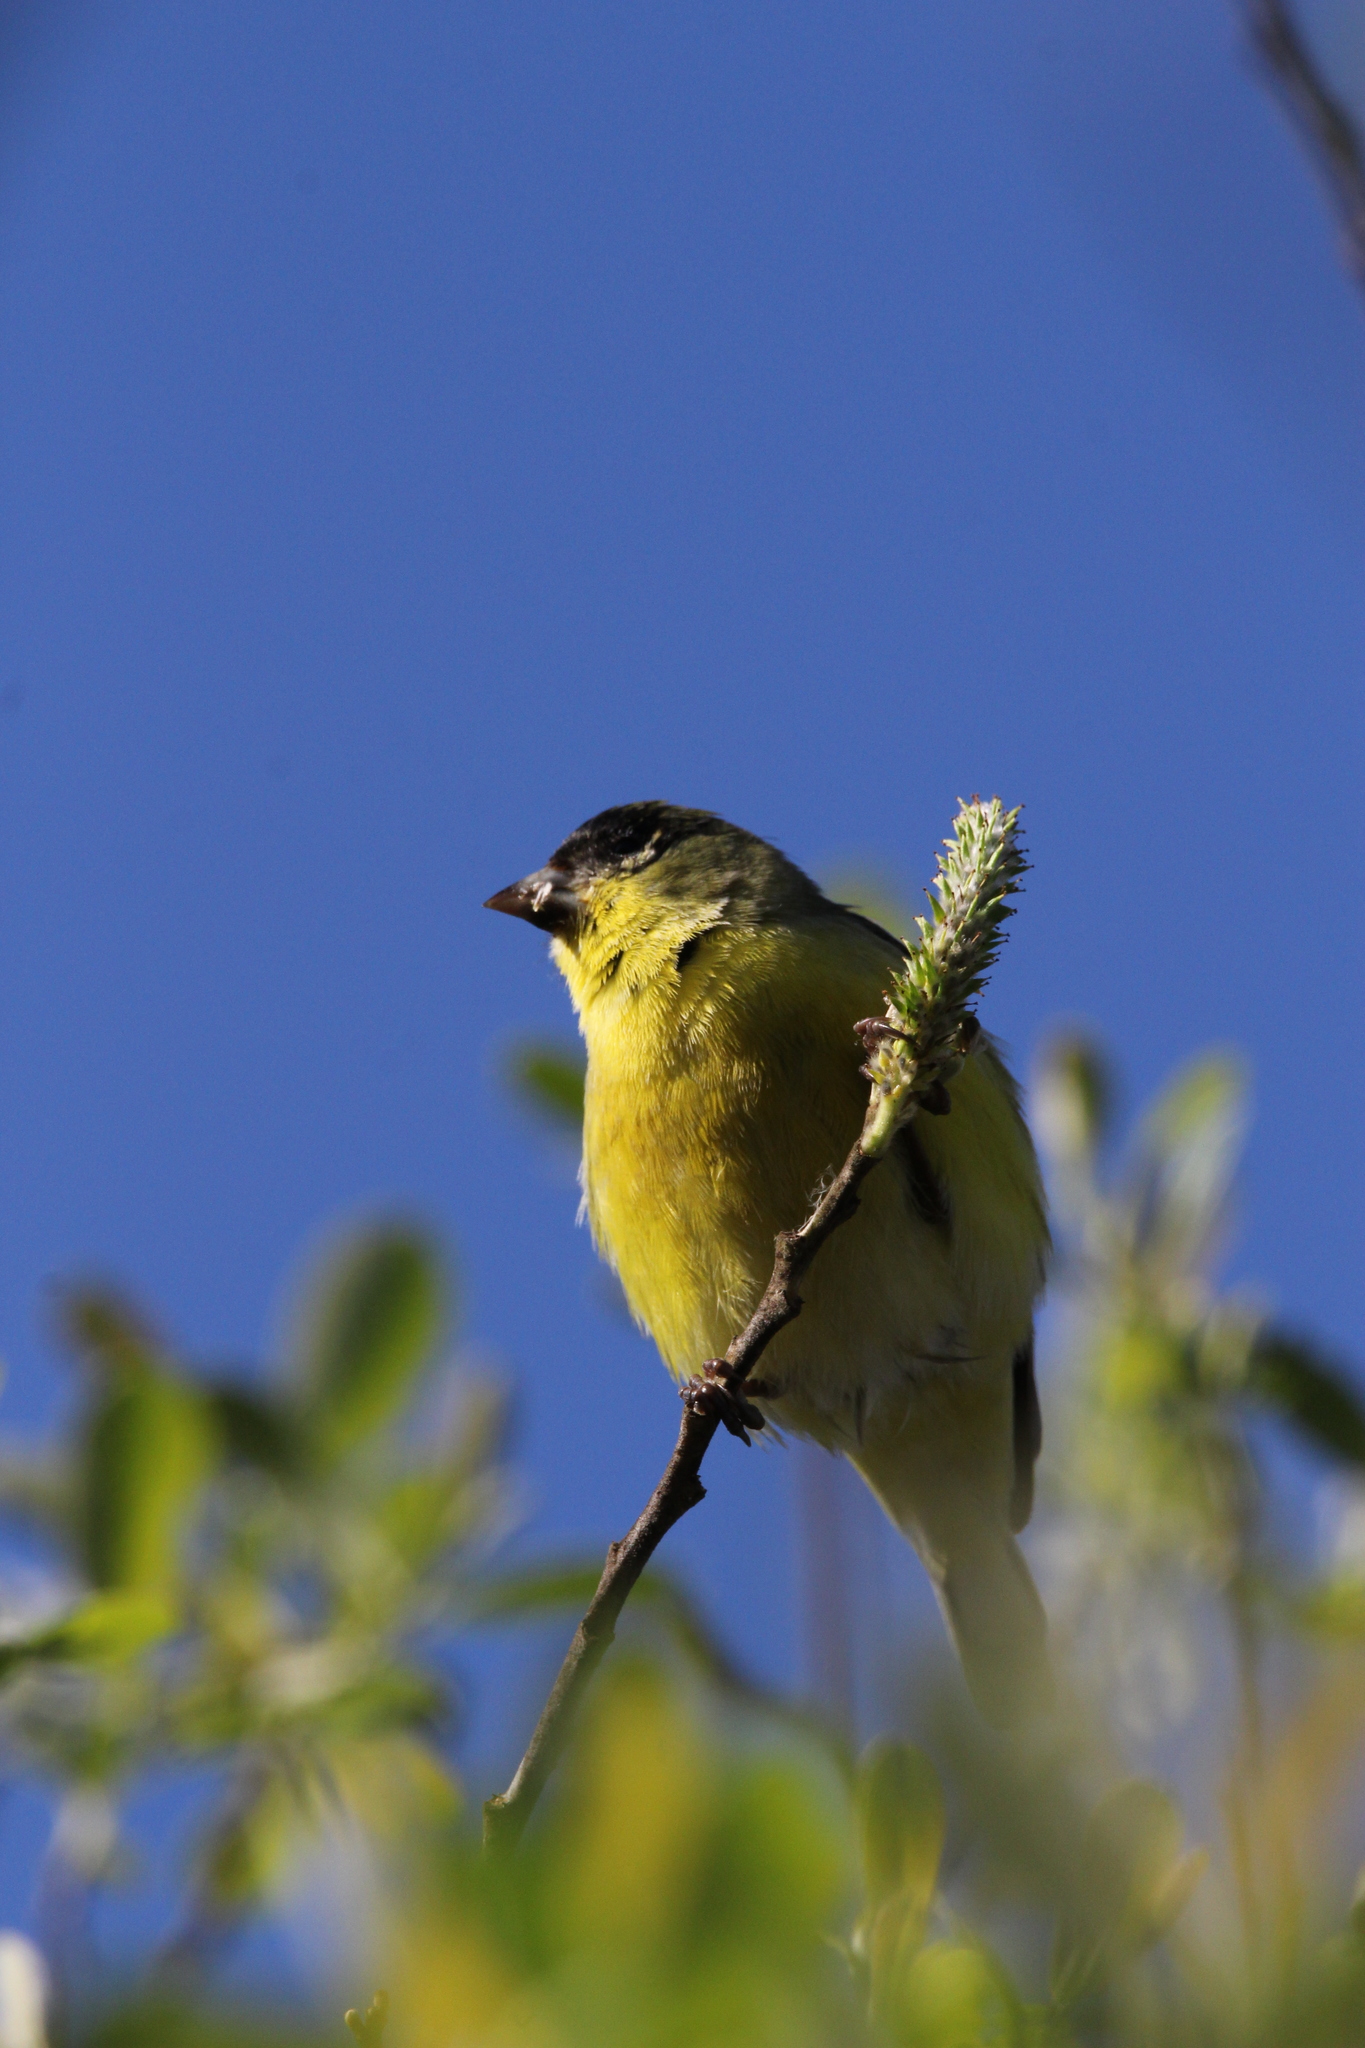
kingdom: Animalia
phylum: Chordata
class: Aves
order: Passeriformes
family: Fringillidae
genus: Spinus
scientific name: Spinus psaltria
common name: Lesser goldfinch
